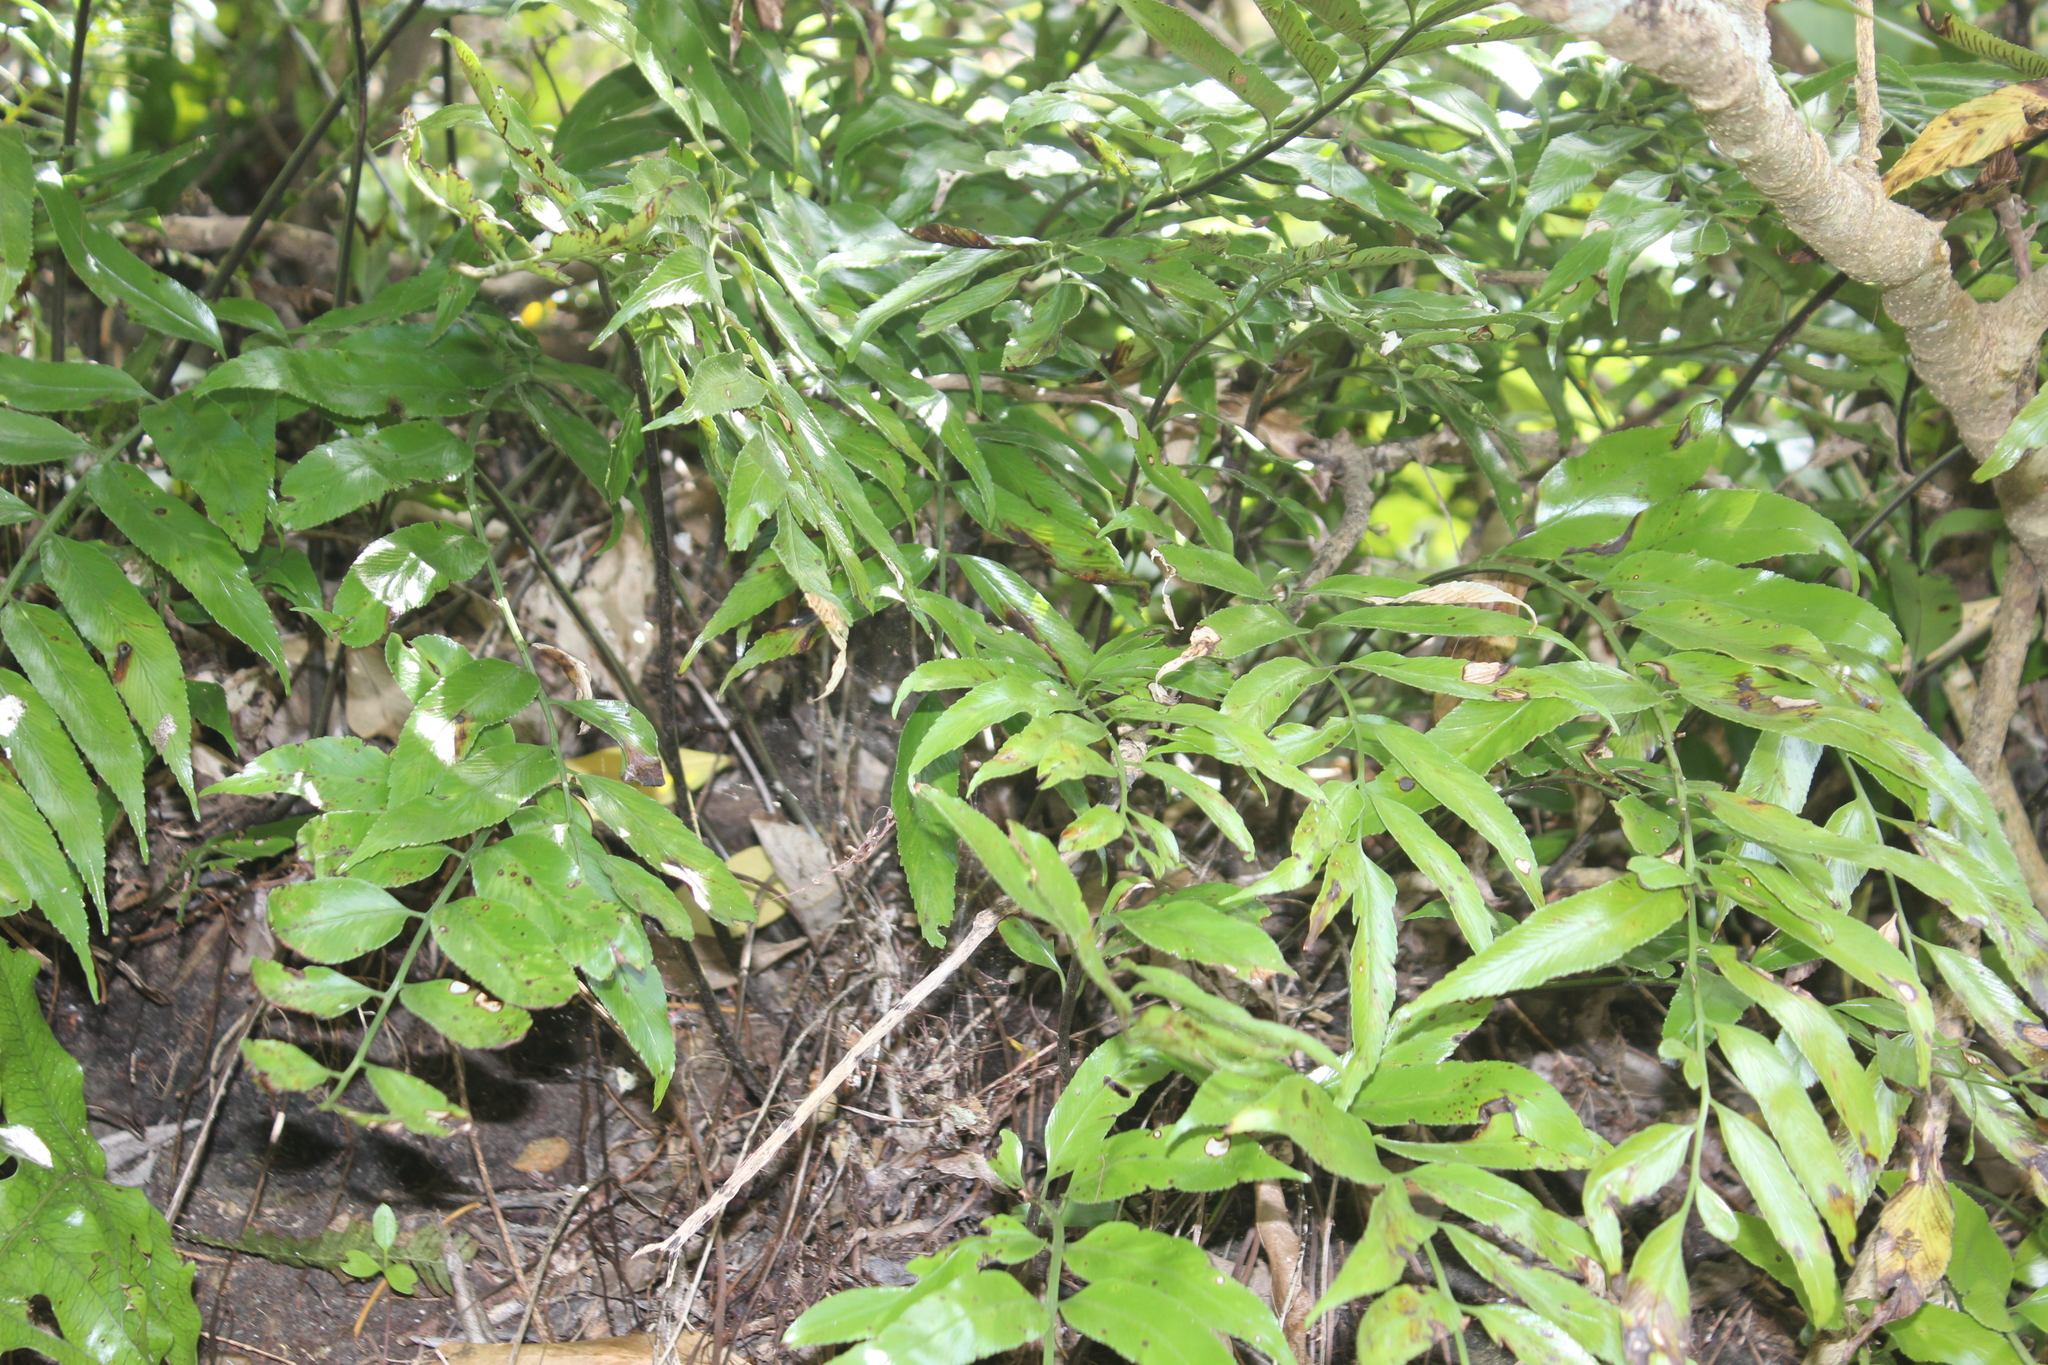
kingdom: Plantae
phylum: Tracheophyta
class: Polypodiopsida
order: Polypodiales
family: Aspleniaceae
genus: Asplenium
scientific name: Asplenium oblongifolium
